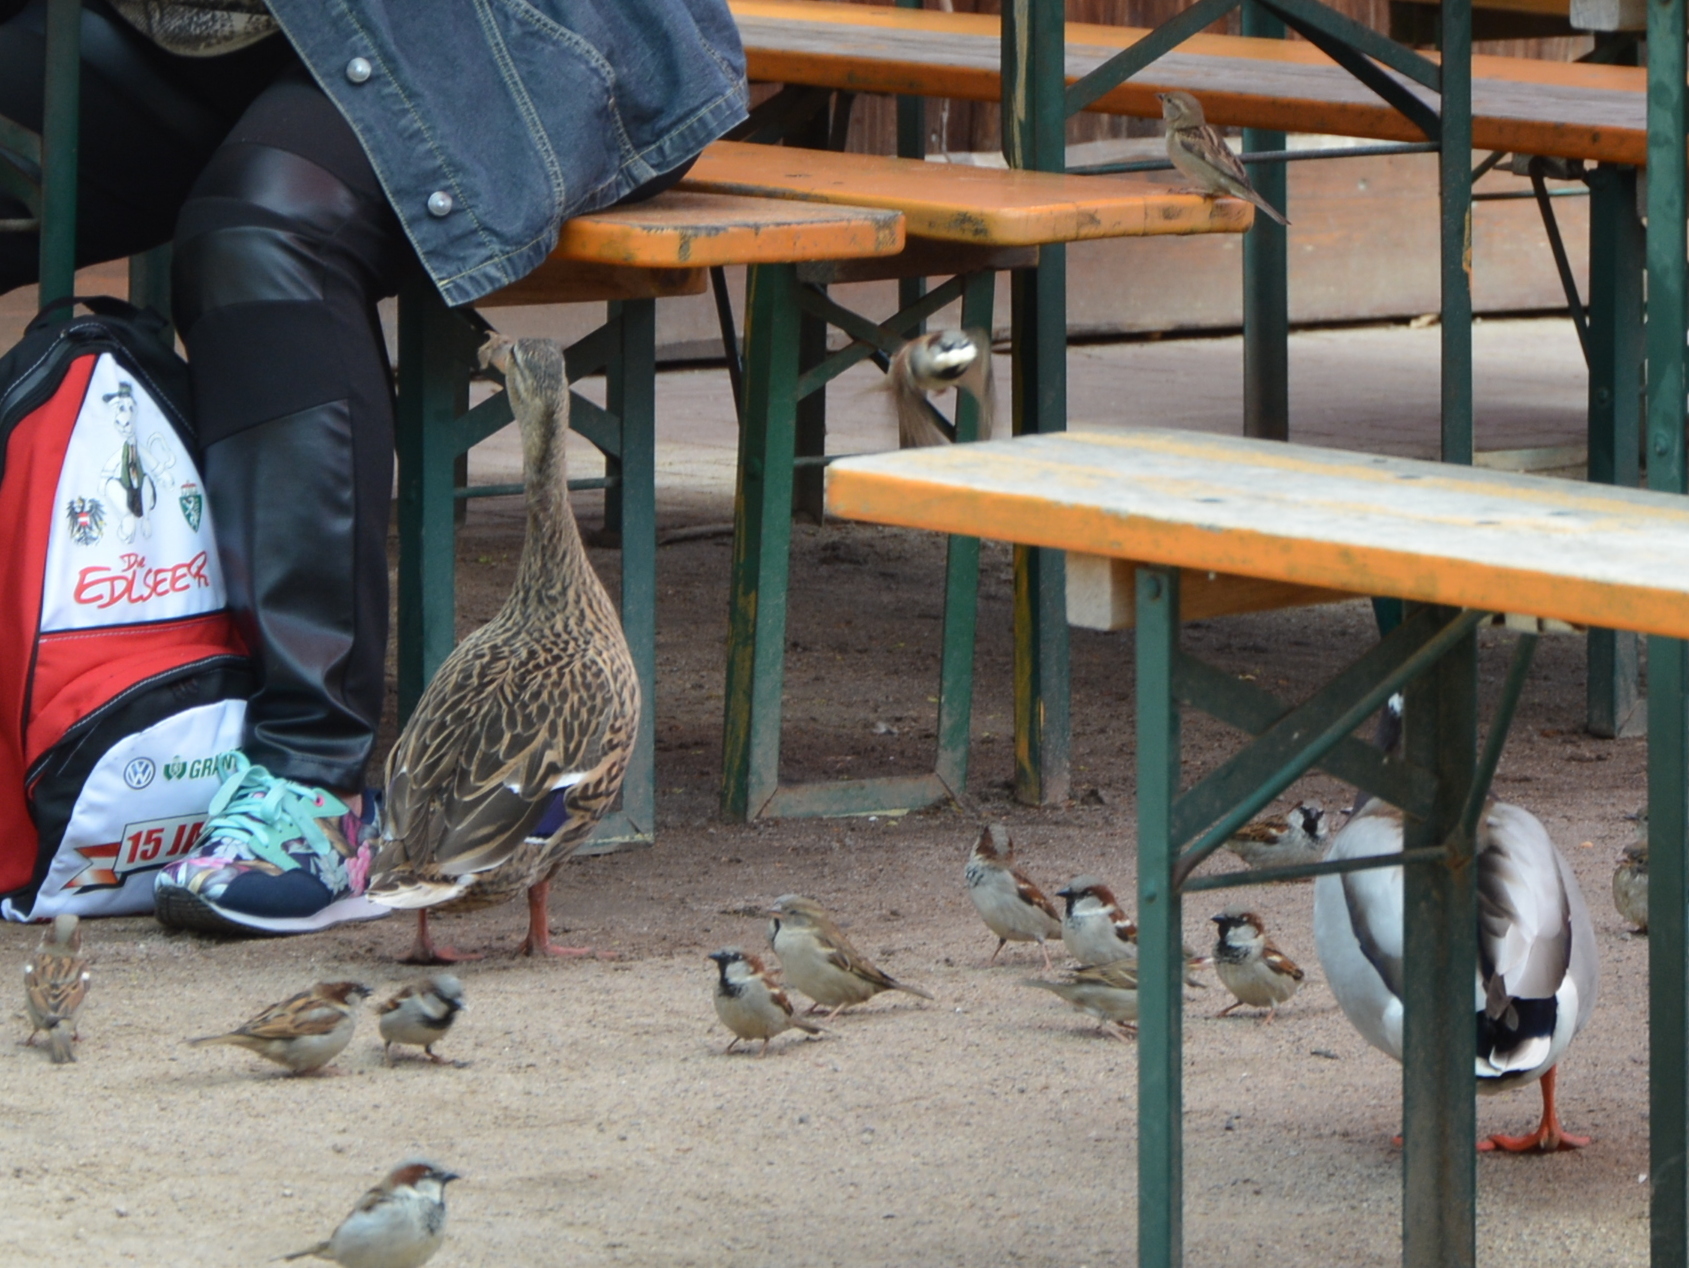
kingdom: Animalia
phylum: Chordata
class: Aves
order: Anseriformes
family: Anatidae
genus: Anas
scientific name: Anas platyrhynchos
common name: Mallard
